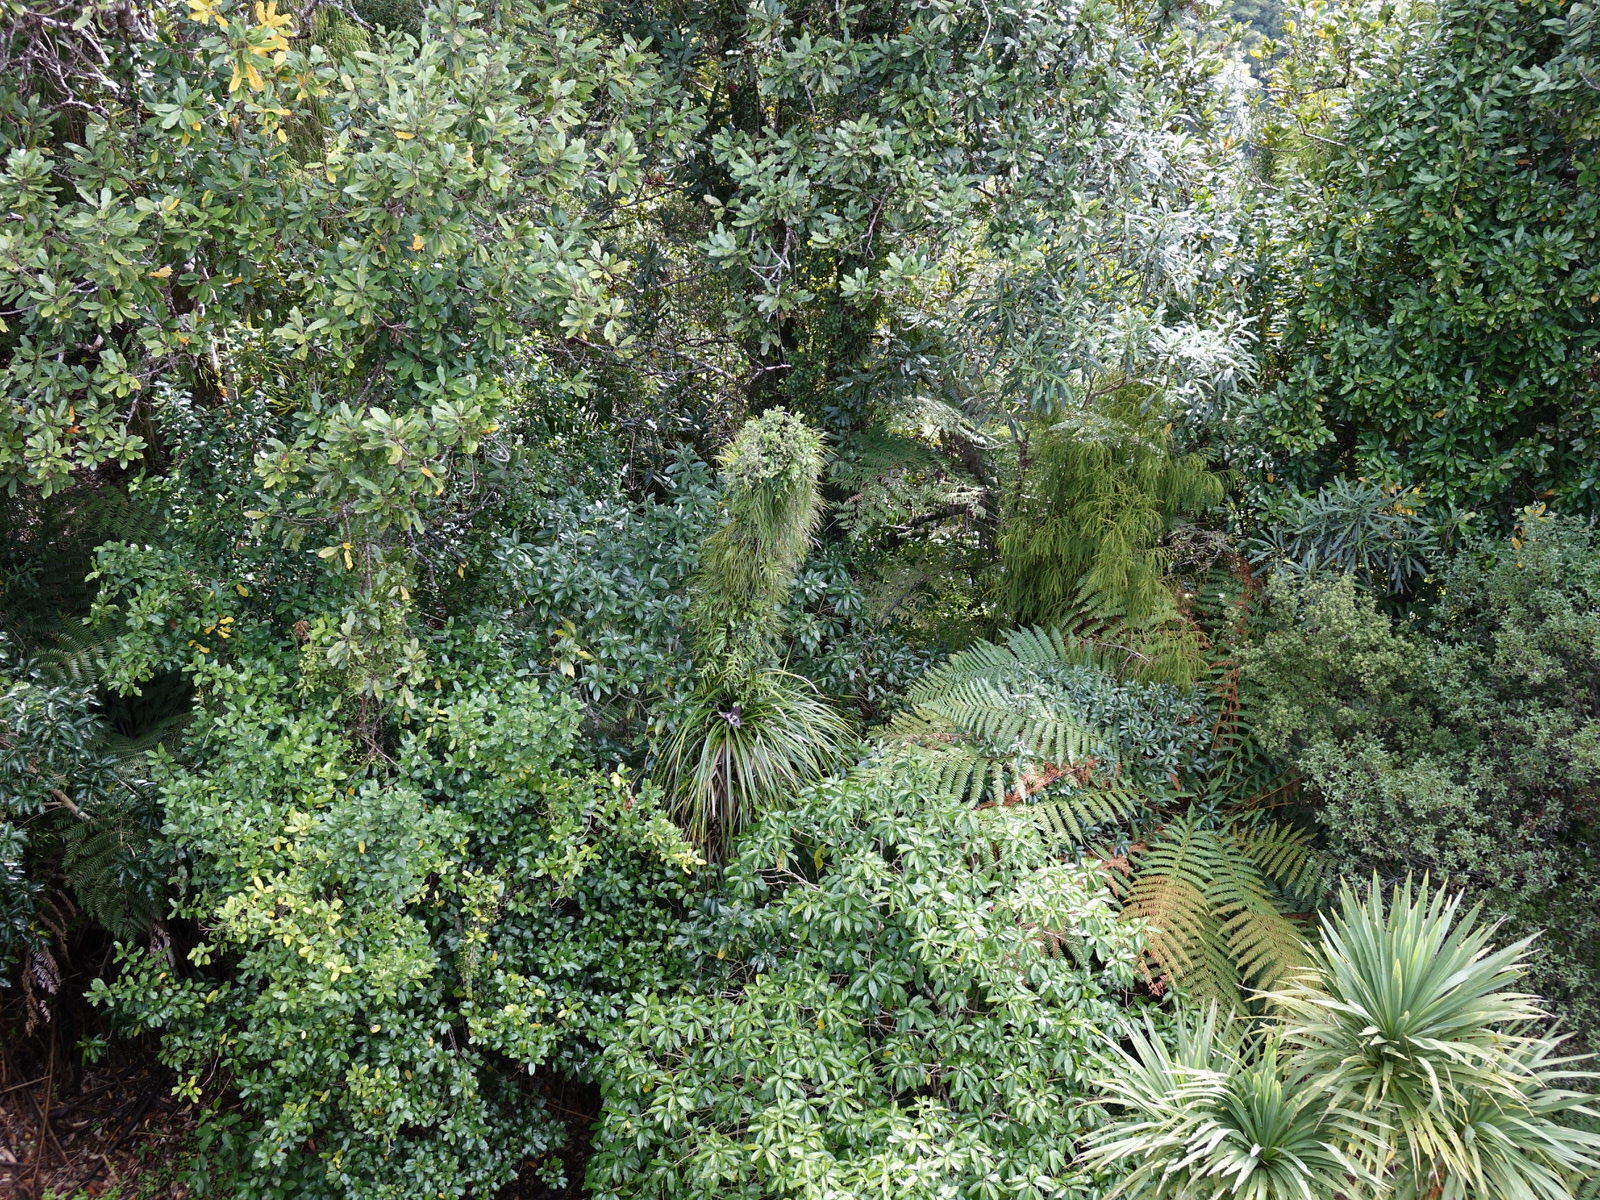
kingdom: Plantae
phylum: Tracheophyta
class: Liliopsida
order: Pandanales
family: Pandanaceae
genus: Freycinetia
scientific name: Freycinetia banksii
